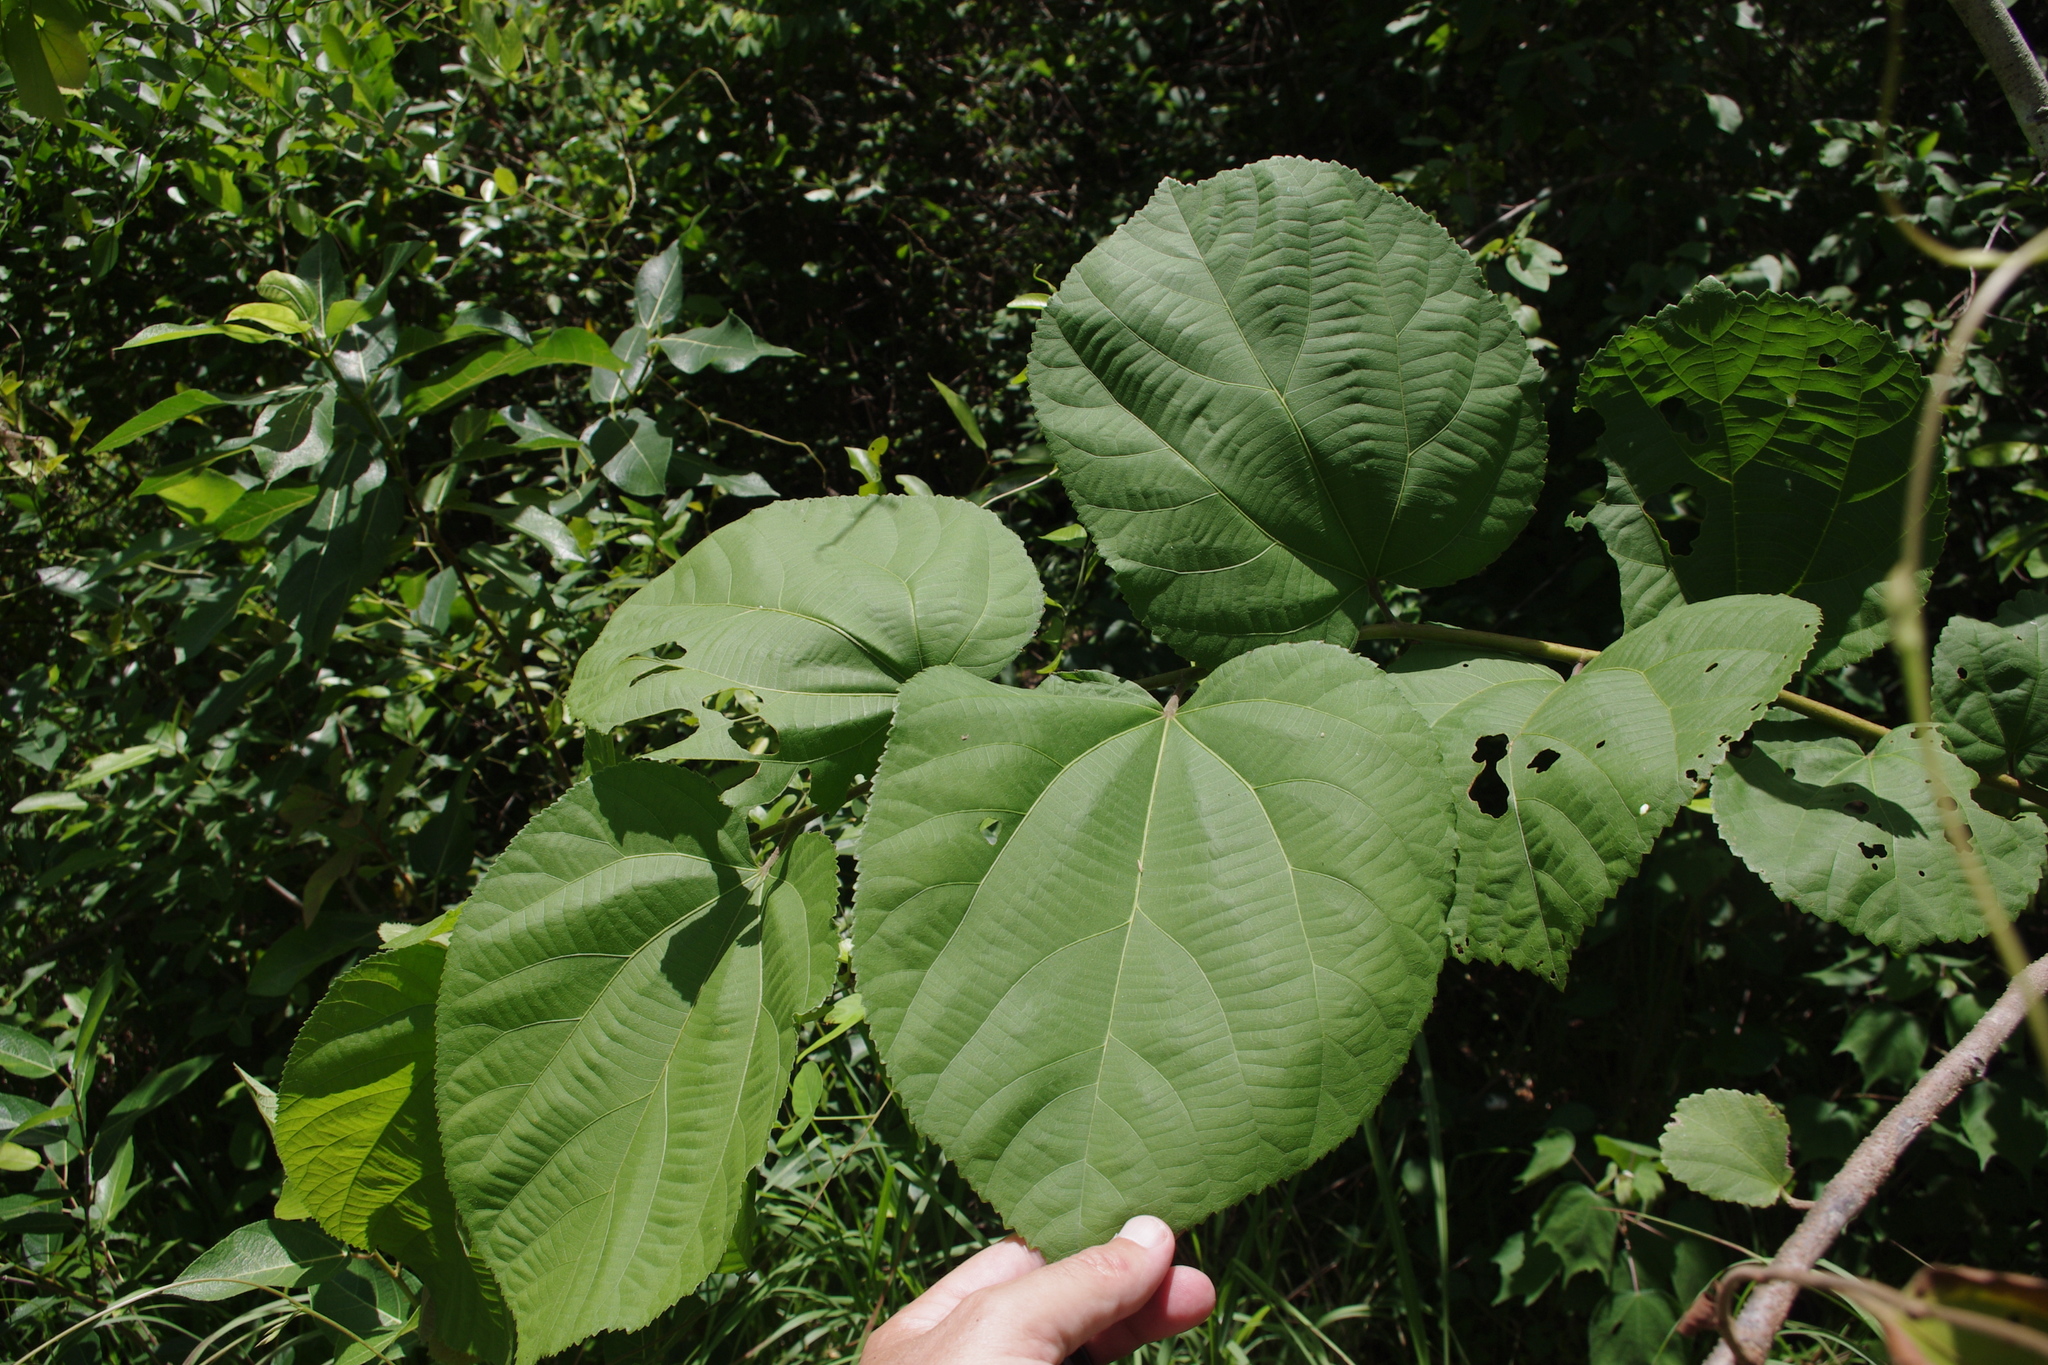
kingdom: Plantae
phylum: Tracheophyta
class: Magnoliopsida
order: Malvales
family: Malvaceae
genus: Grewia
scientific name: Grewia asiatica
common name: Phalsa
